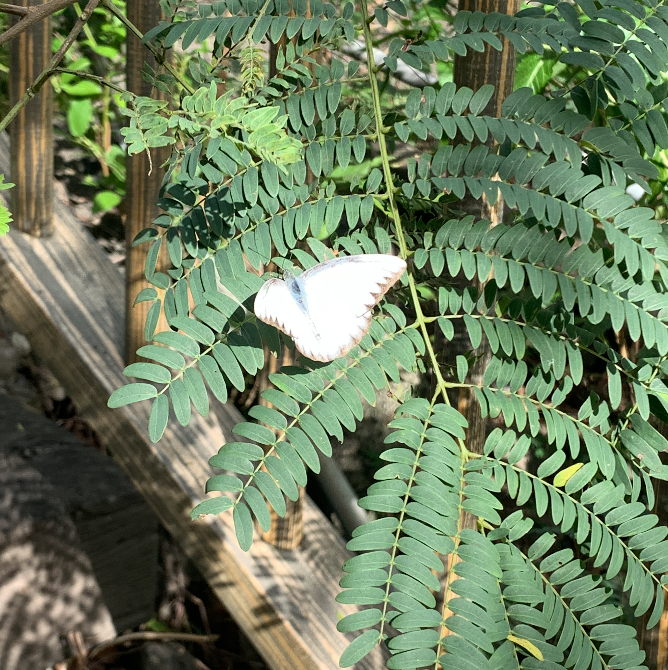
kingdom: Animalia
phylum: Arthropoda
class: Insecta
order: Lepidoptera
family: Pieridae
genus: Appias
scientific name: Appias lyncida
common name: Chocolate albatross
